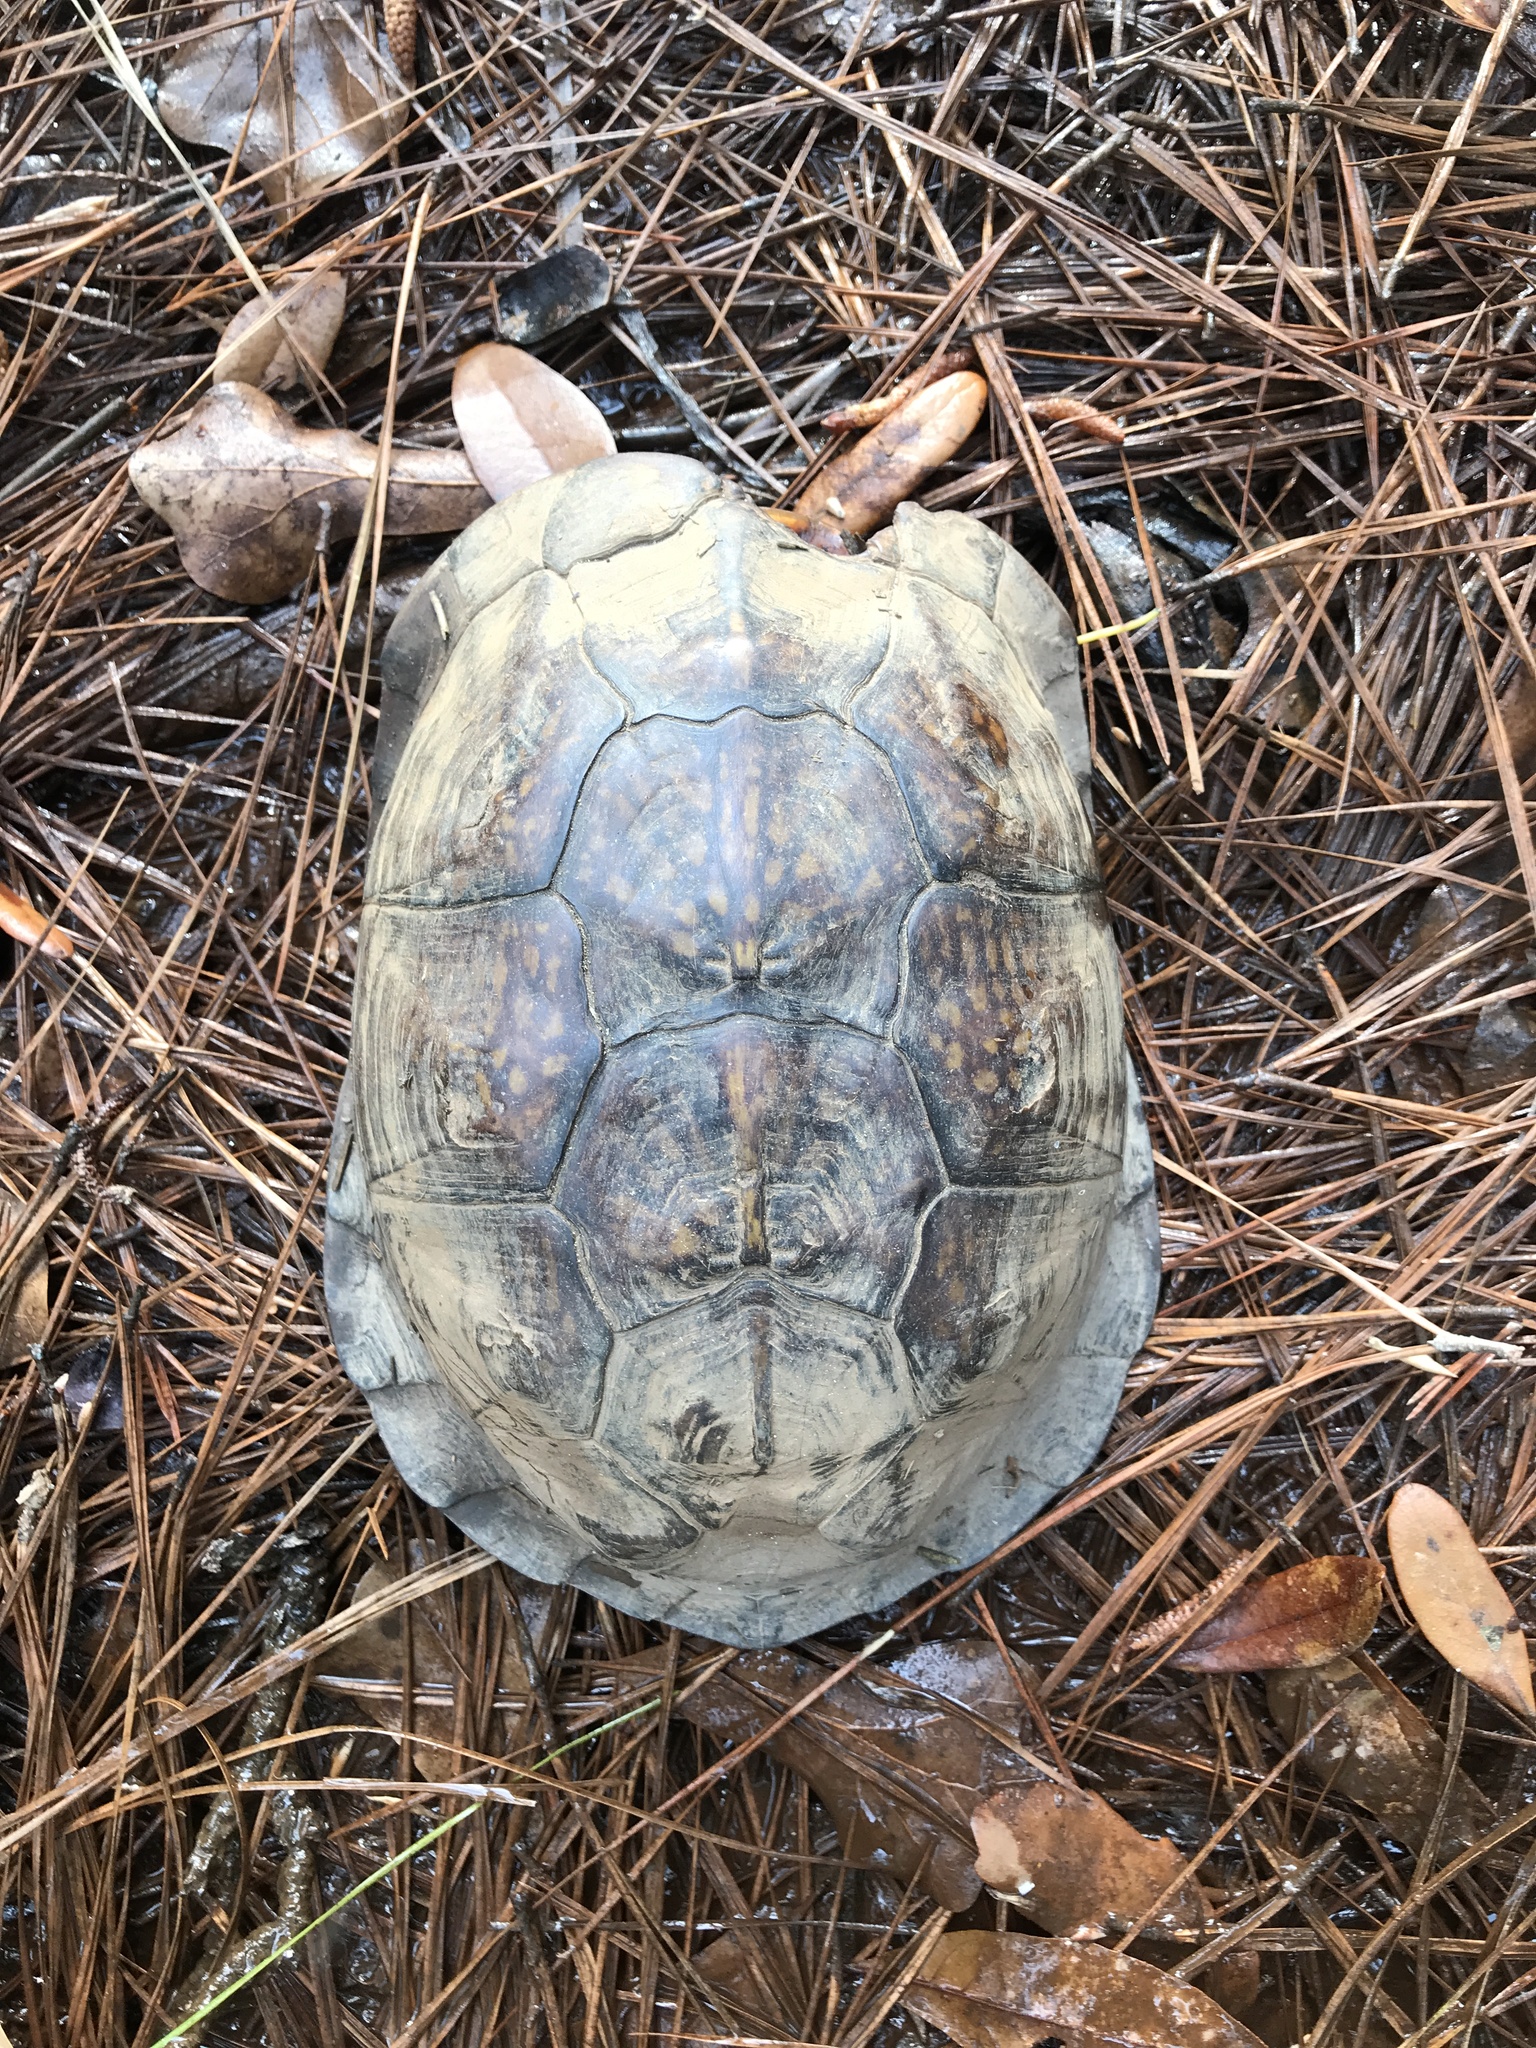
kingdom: Animalia
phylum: Chordata
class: Testudines
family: Emydidae
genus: Terrapene
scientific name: Terrapene carolina
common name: Common box turtle
